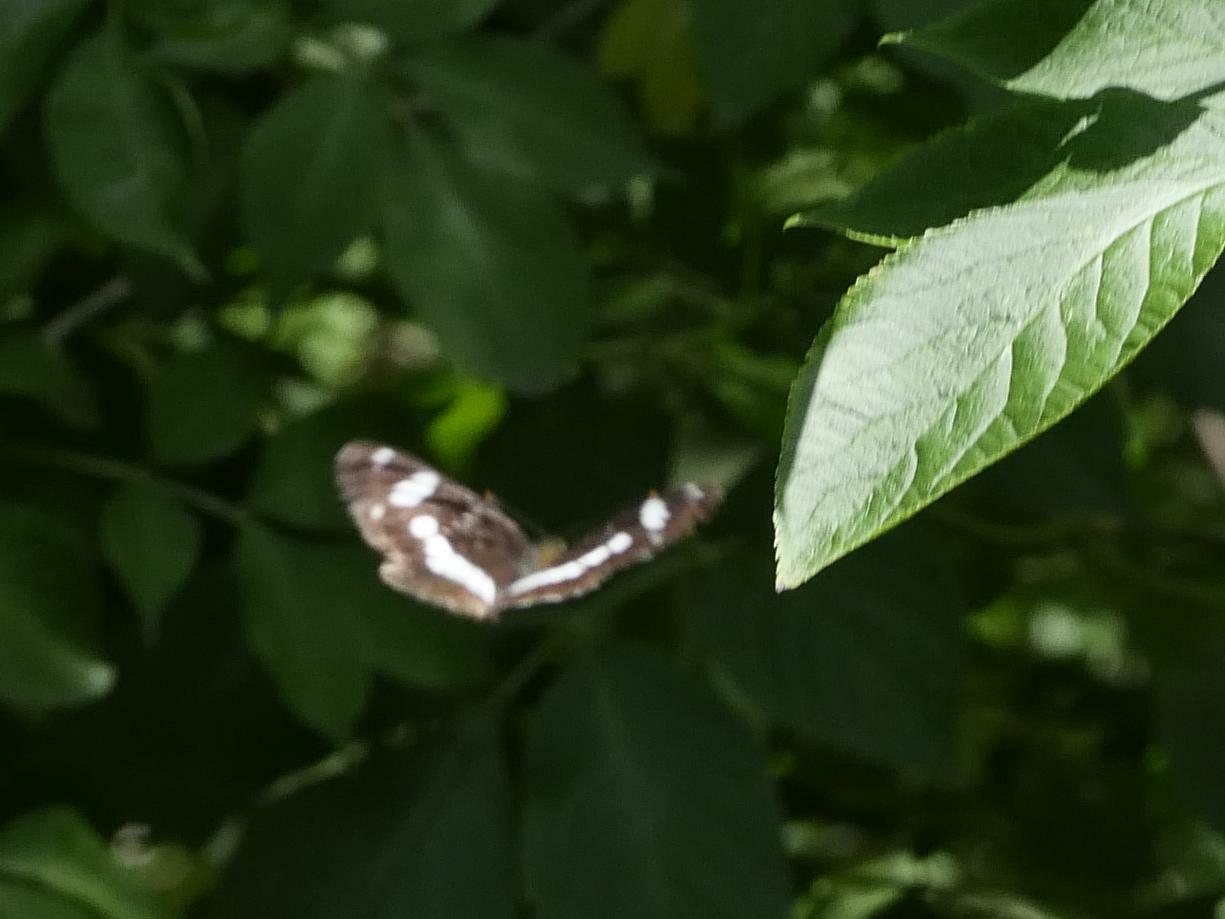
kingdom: Animalia
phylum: Arthropoda
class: Insecta
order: Lepidoptera
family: Nymphalidae
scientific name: Nymphalidae
